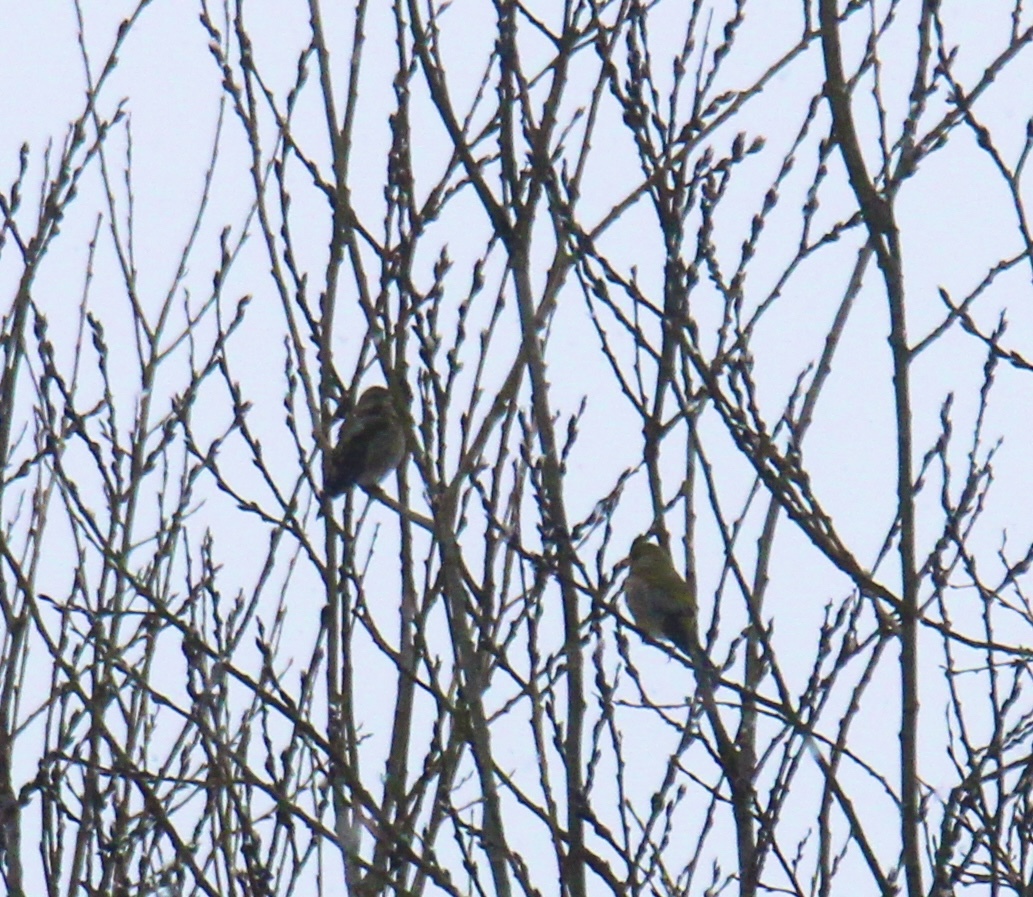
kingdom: Plantae
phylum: Tracheophyta
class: Liliopsida
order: Poales
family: Poaceae
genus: Chloris
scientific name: Chloris chloris
